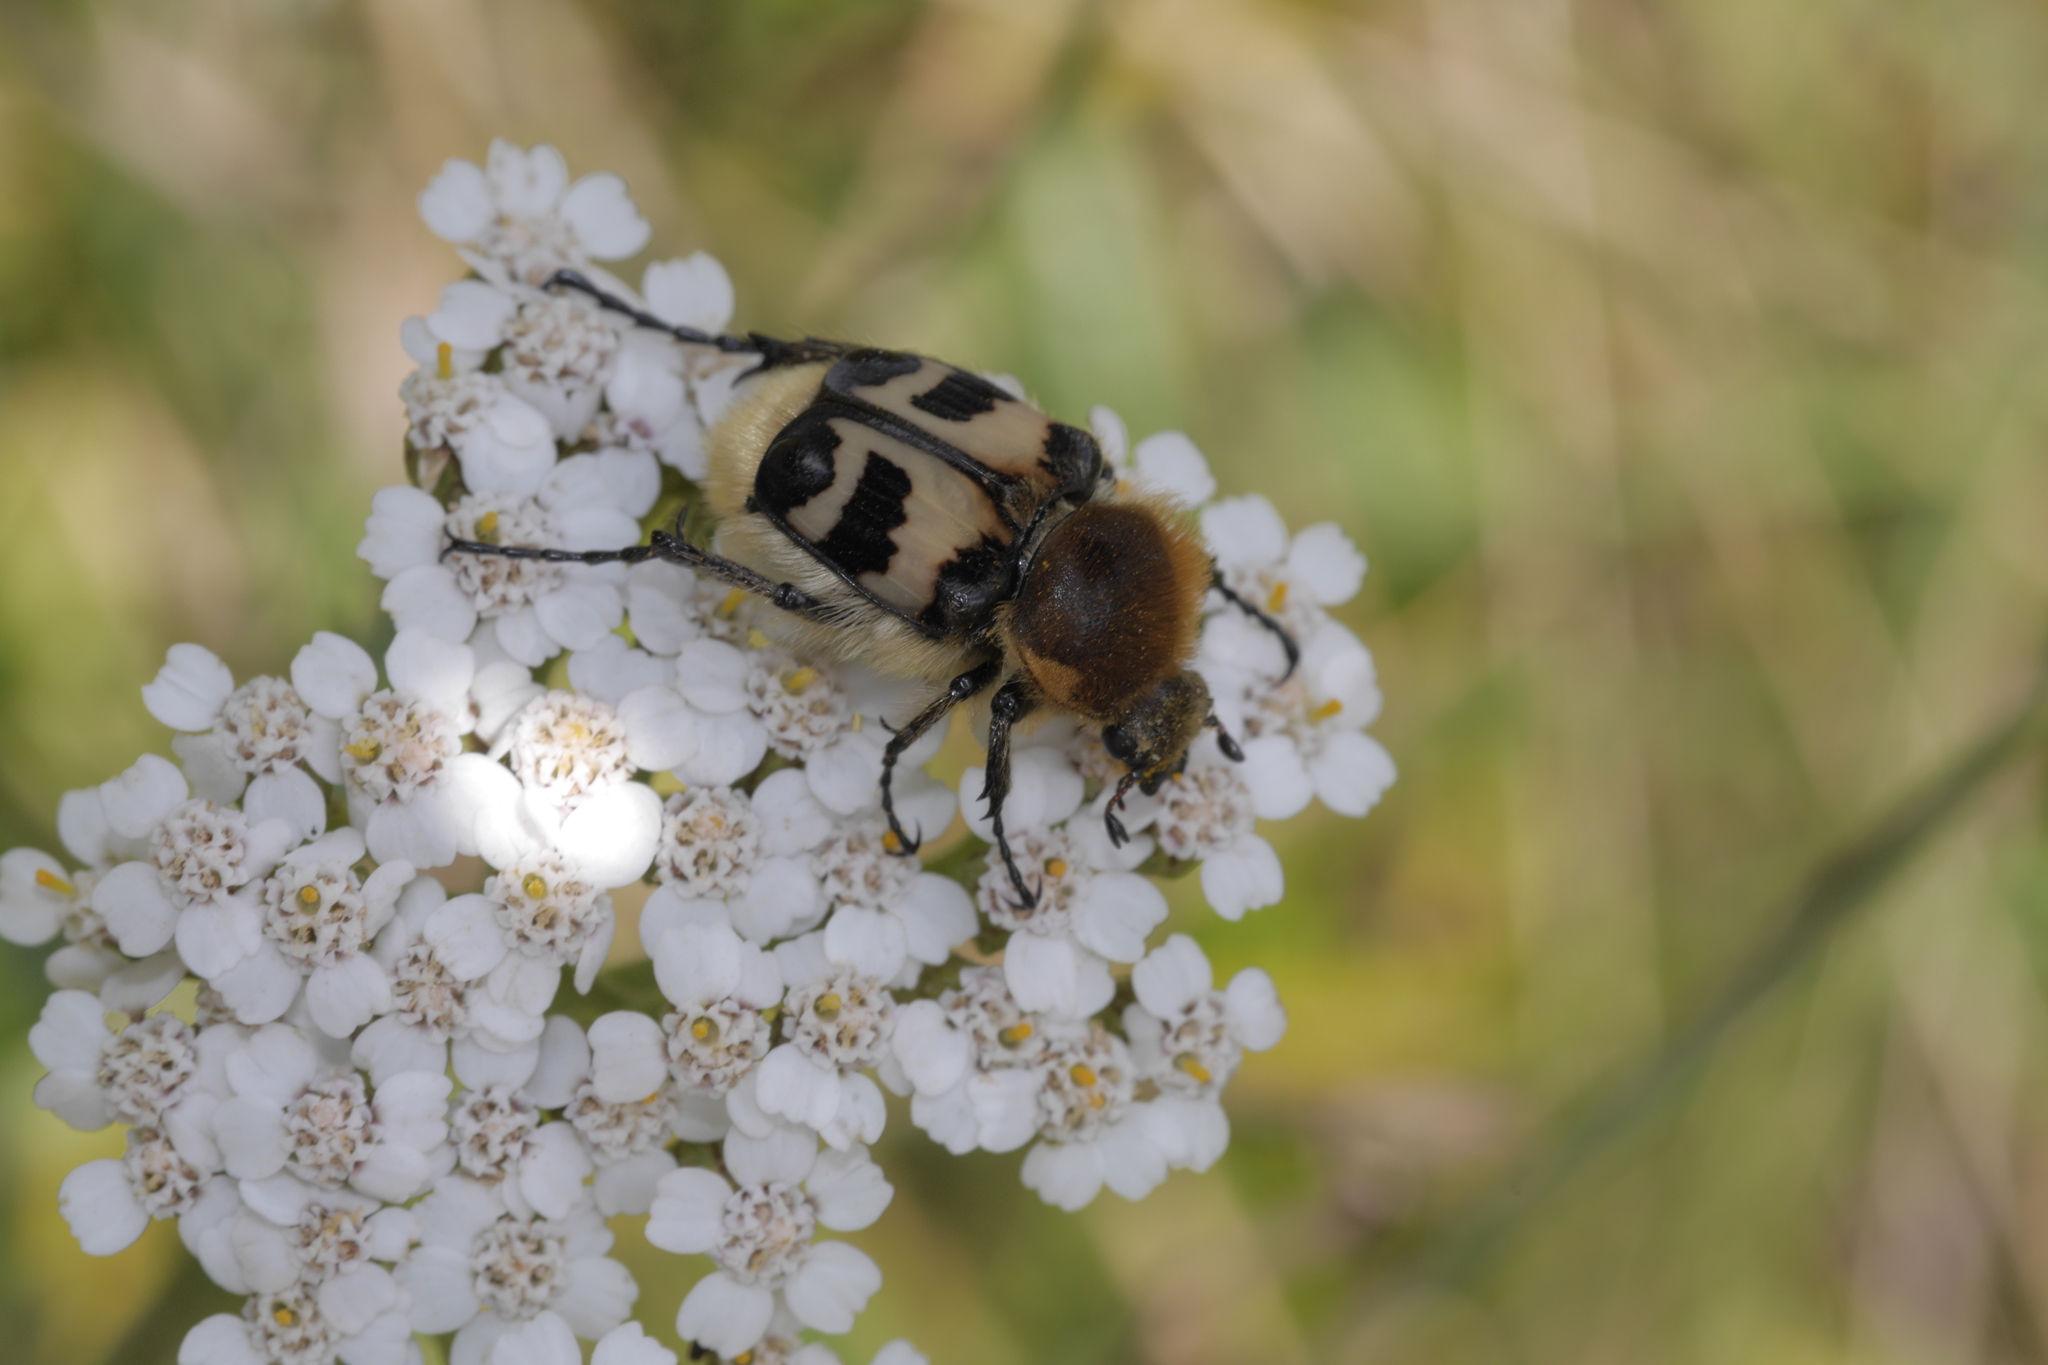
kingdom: Animalia
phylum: Arthropoda
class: Insecta
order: Coleoptera
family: Scarabaeidae
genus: Trichius
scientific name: Trichius fasciatus
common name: Bee beetle
